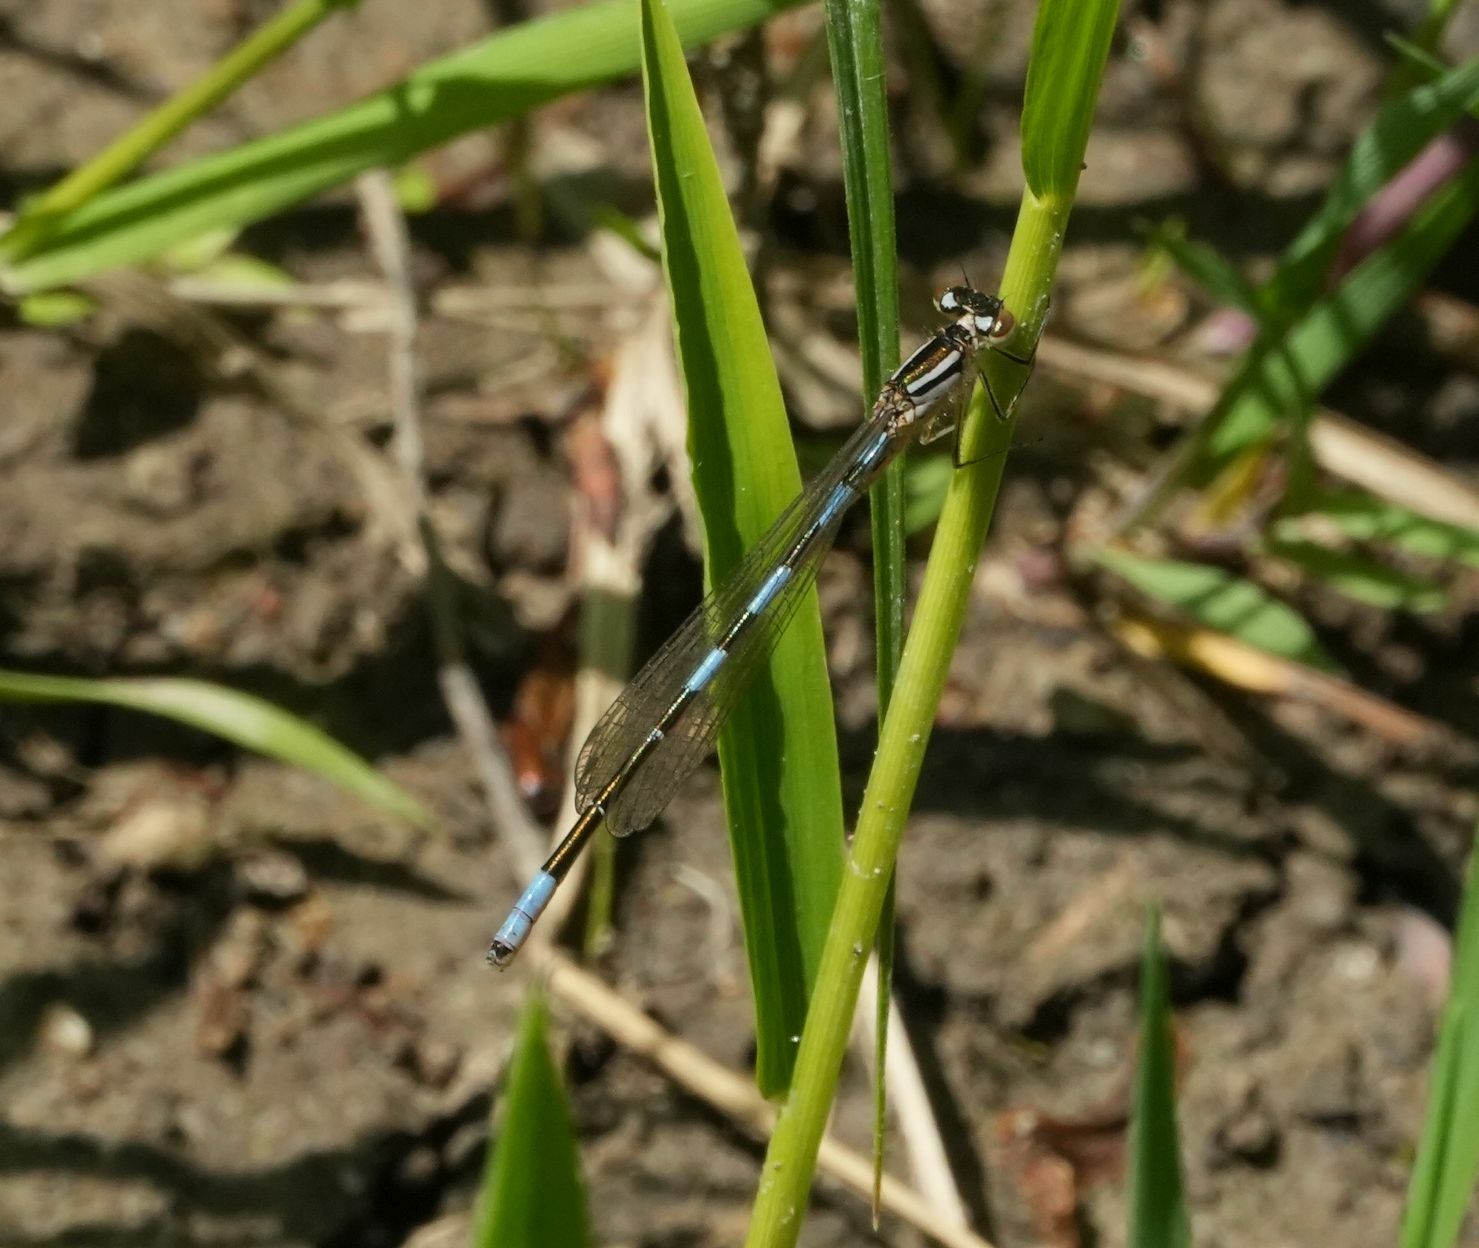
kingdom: Animalia
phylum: Arthropoda
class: Insecta
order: Odonata
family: Coenagrionidae
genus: Coenagrion
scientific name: Coenagrion resolutum
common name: Taiga bluet
